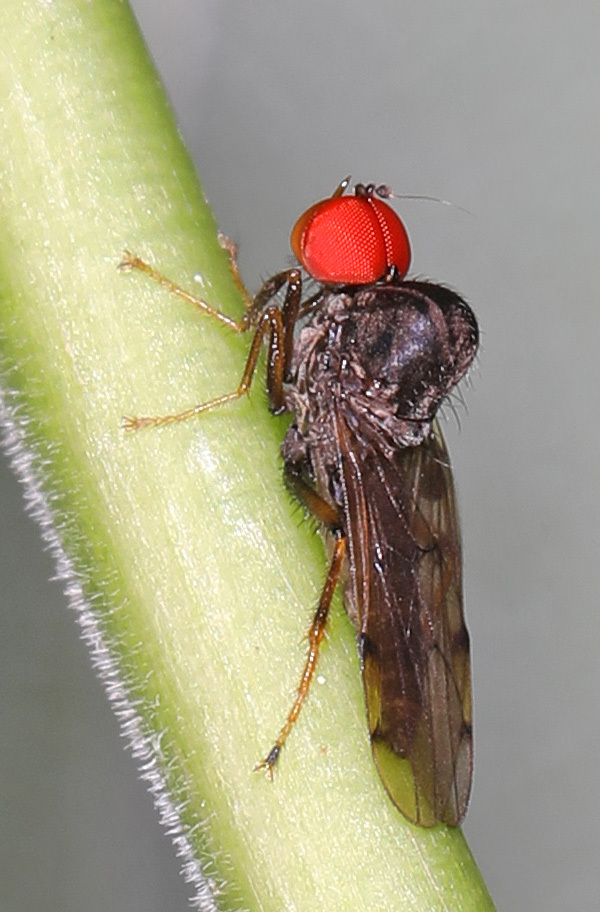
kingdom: Animalia
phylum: Arthropoda
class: Insecta
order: Diptera
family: Hybotidae
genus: Syneches
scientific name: Syneches simplex
